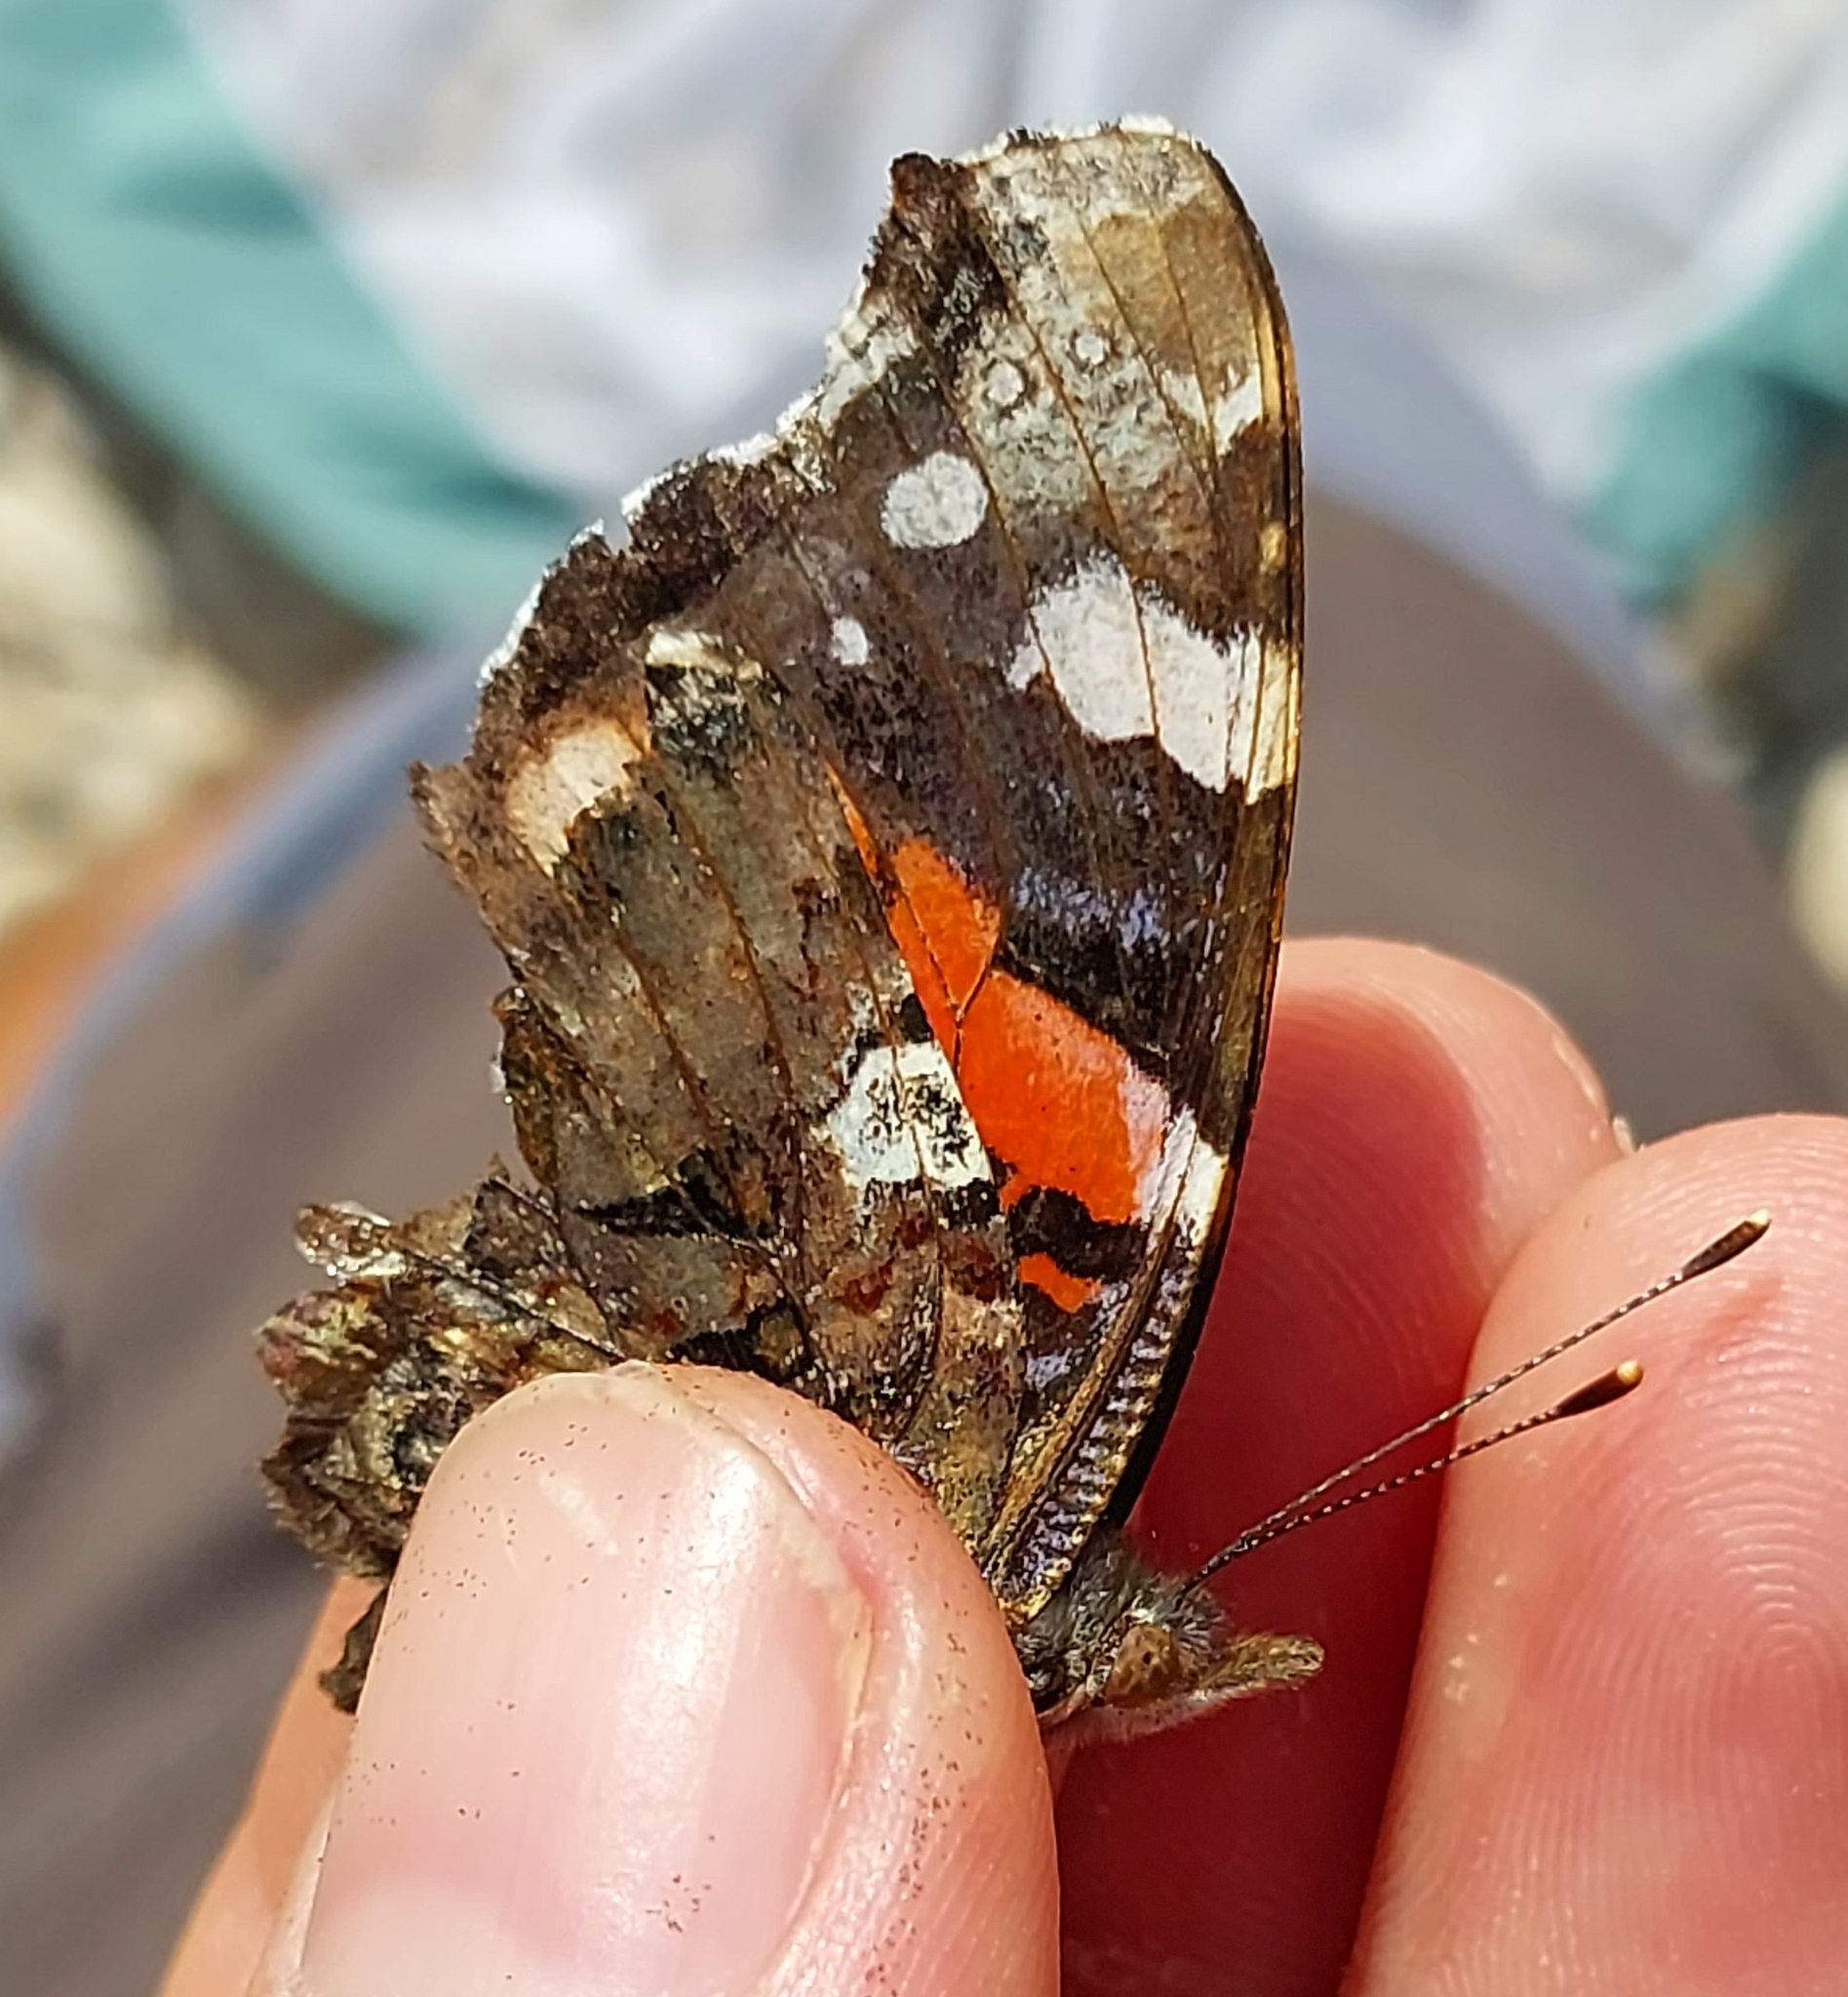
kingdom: Animalia
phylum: Arthropoda
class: Insecta
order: Lepidoptera
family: Nymphalidae
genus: Vanessa
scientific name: Vanessa atalanta
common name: Red admiral
